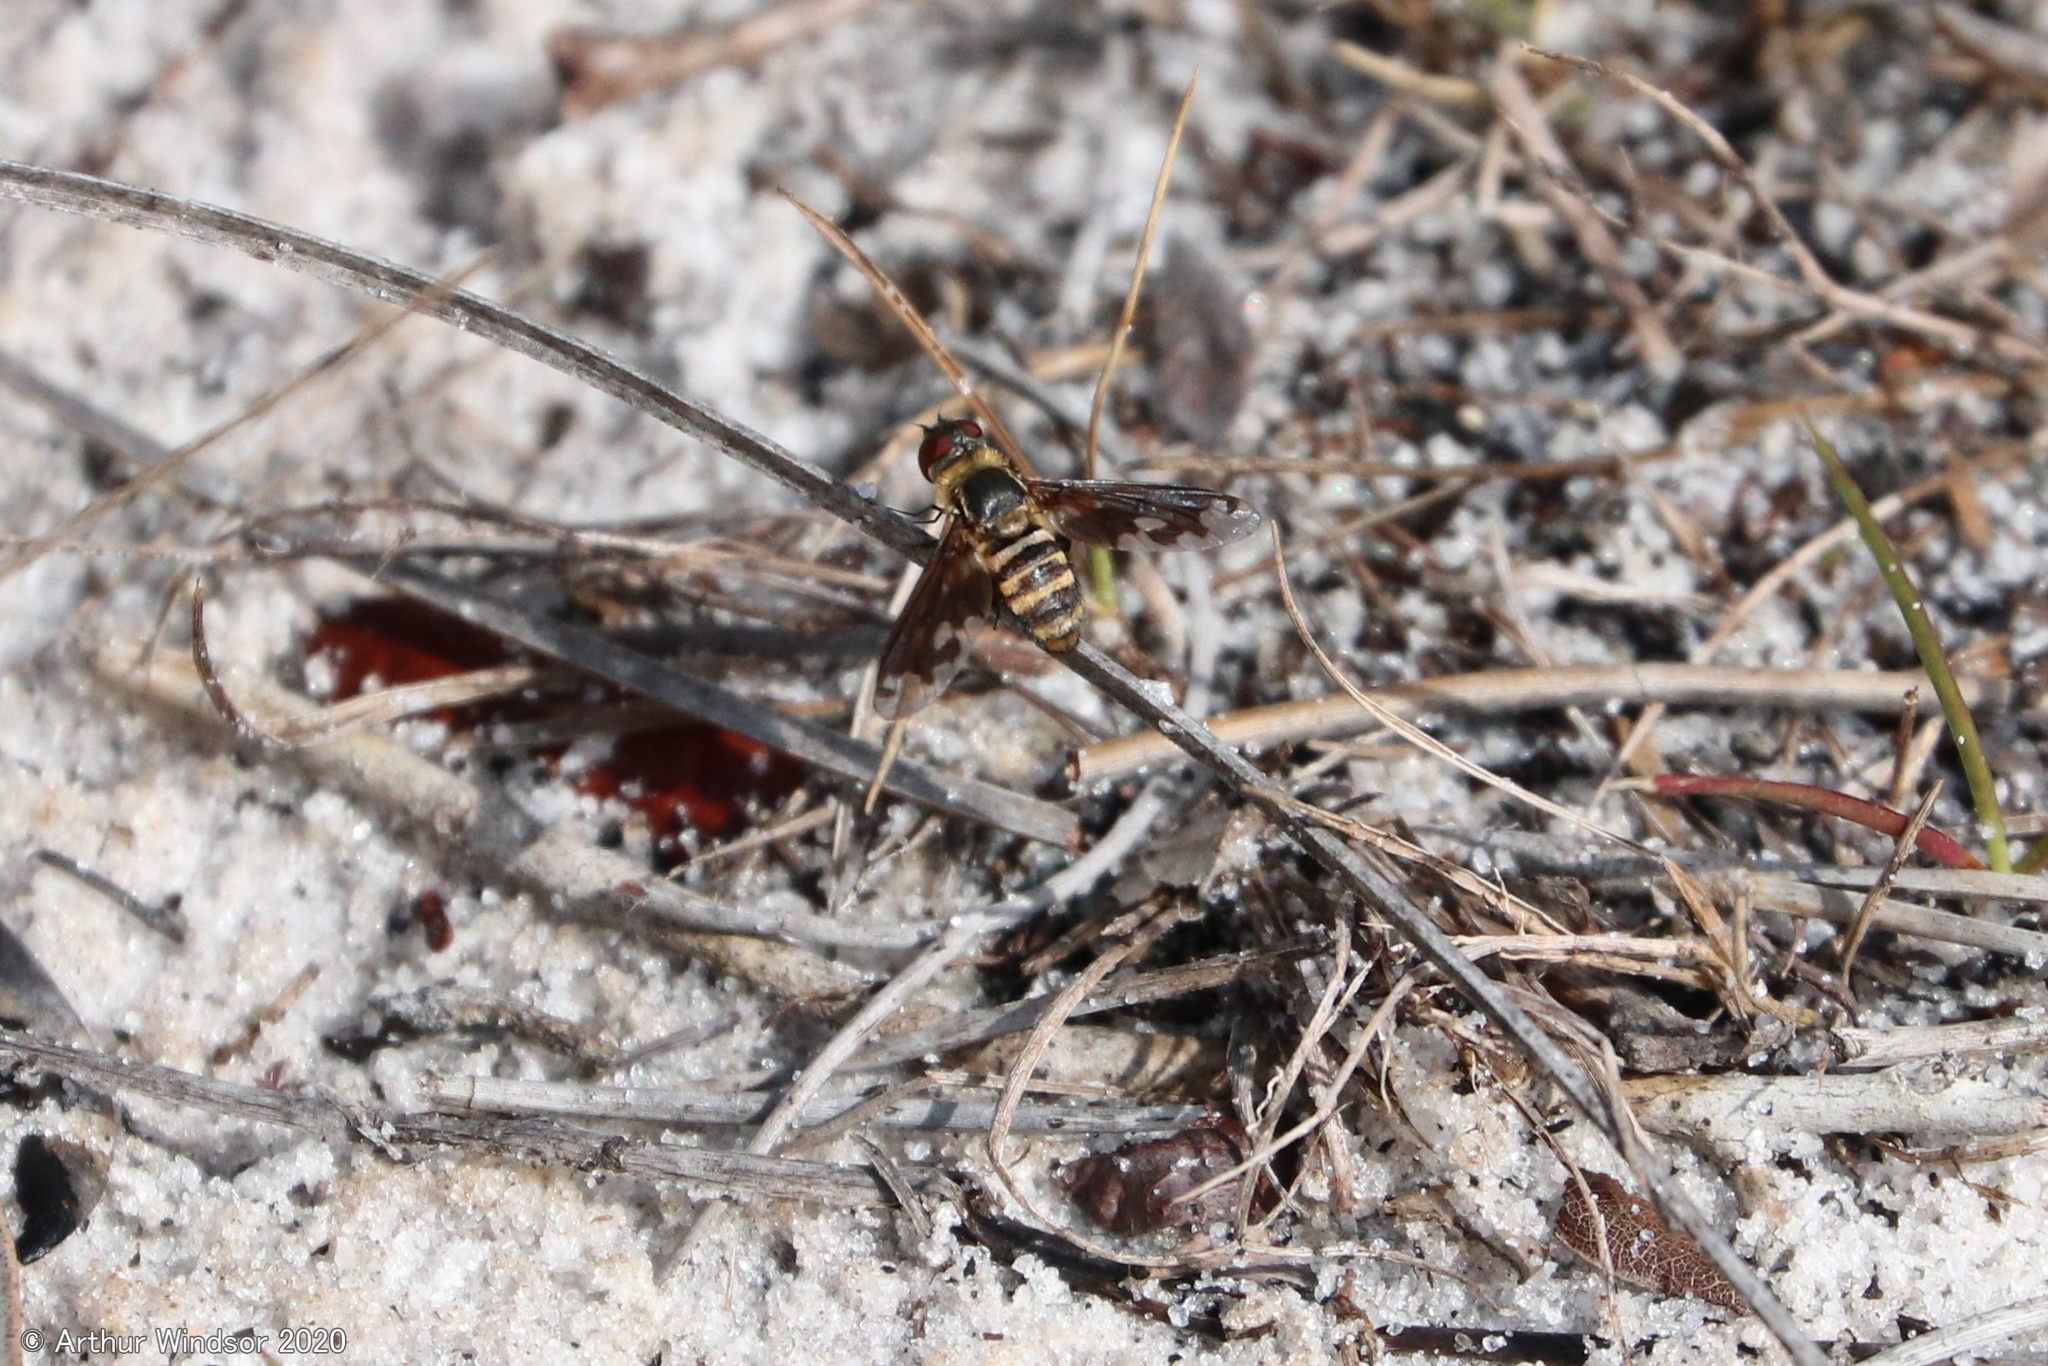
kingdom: Animalia
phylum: Arthropoda
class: Insecta
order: Diptera
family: Bombyliidae
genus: Exoprosopa
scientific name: Exoprosopa fascipennis
